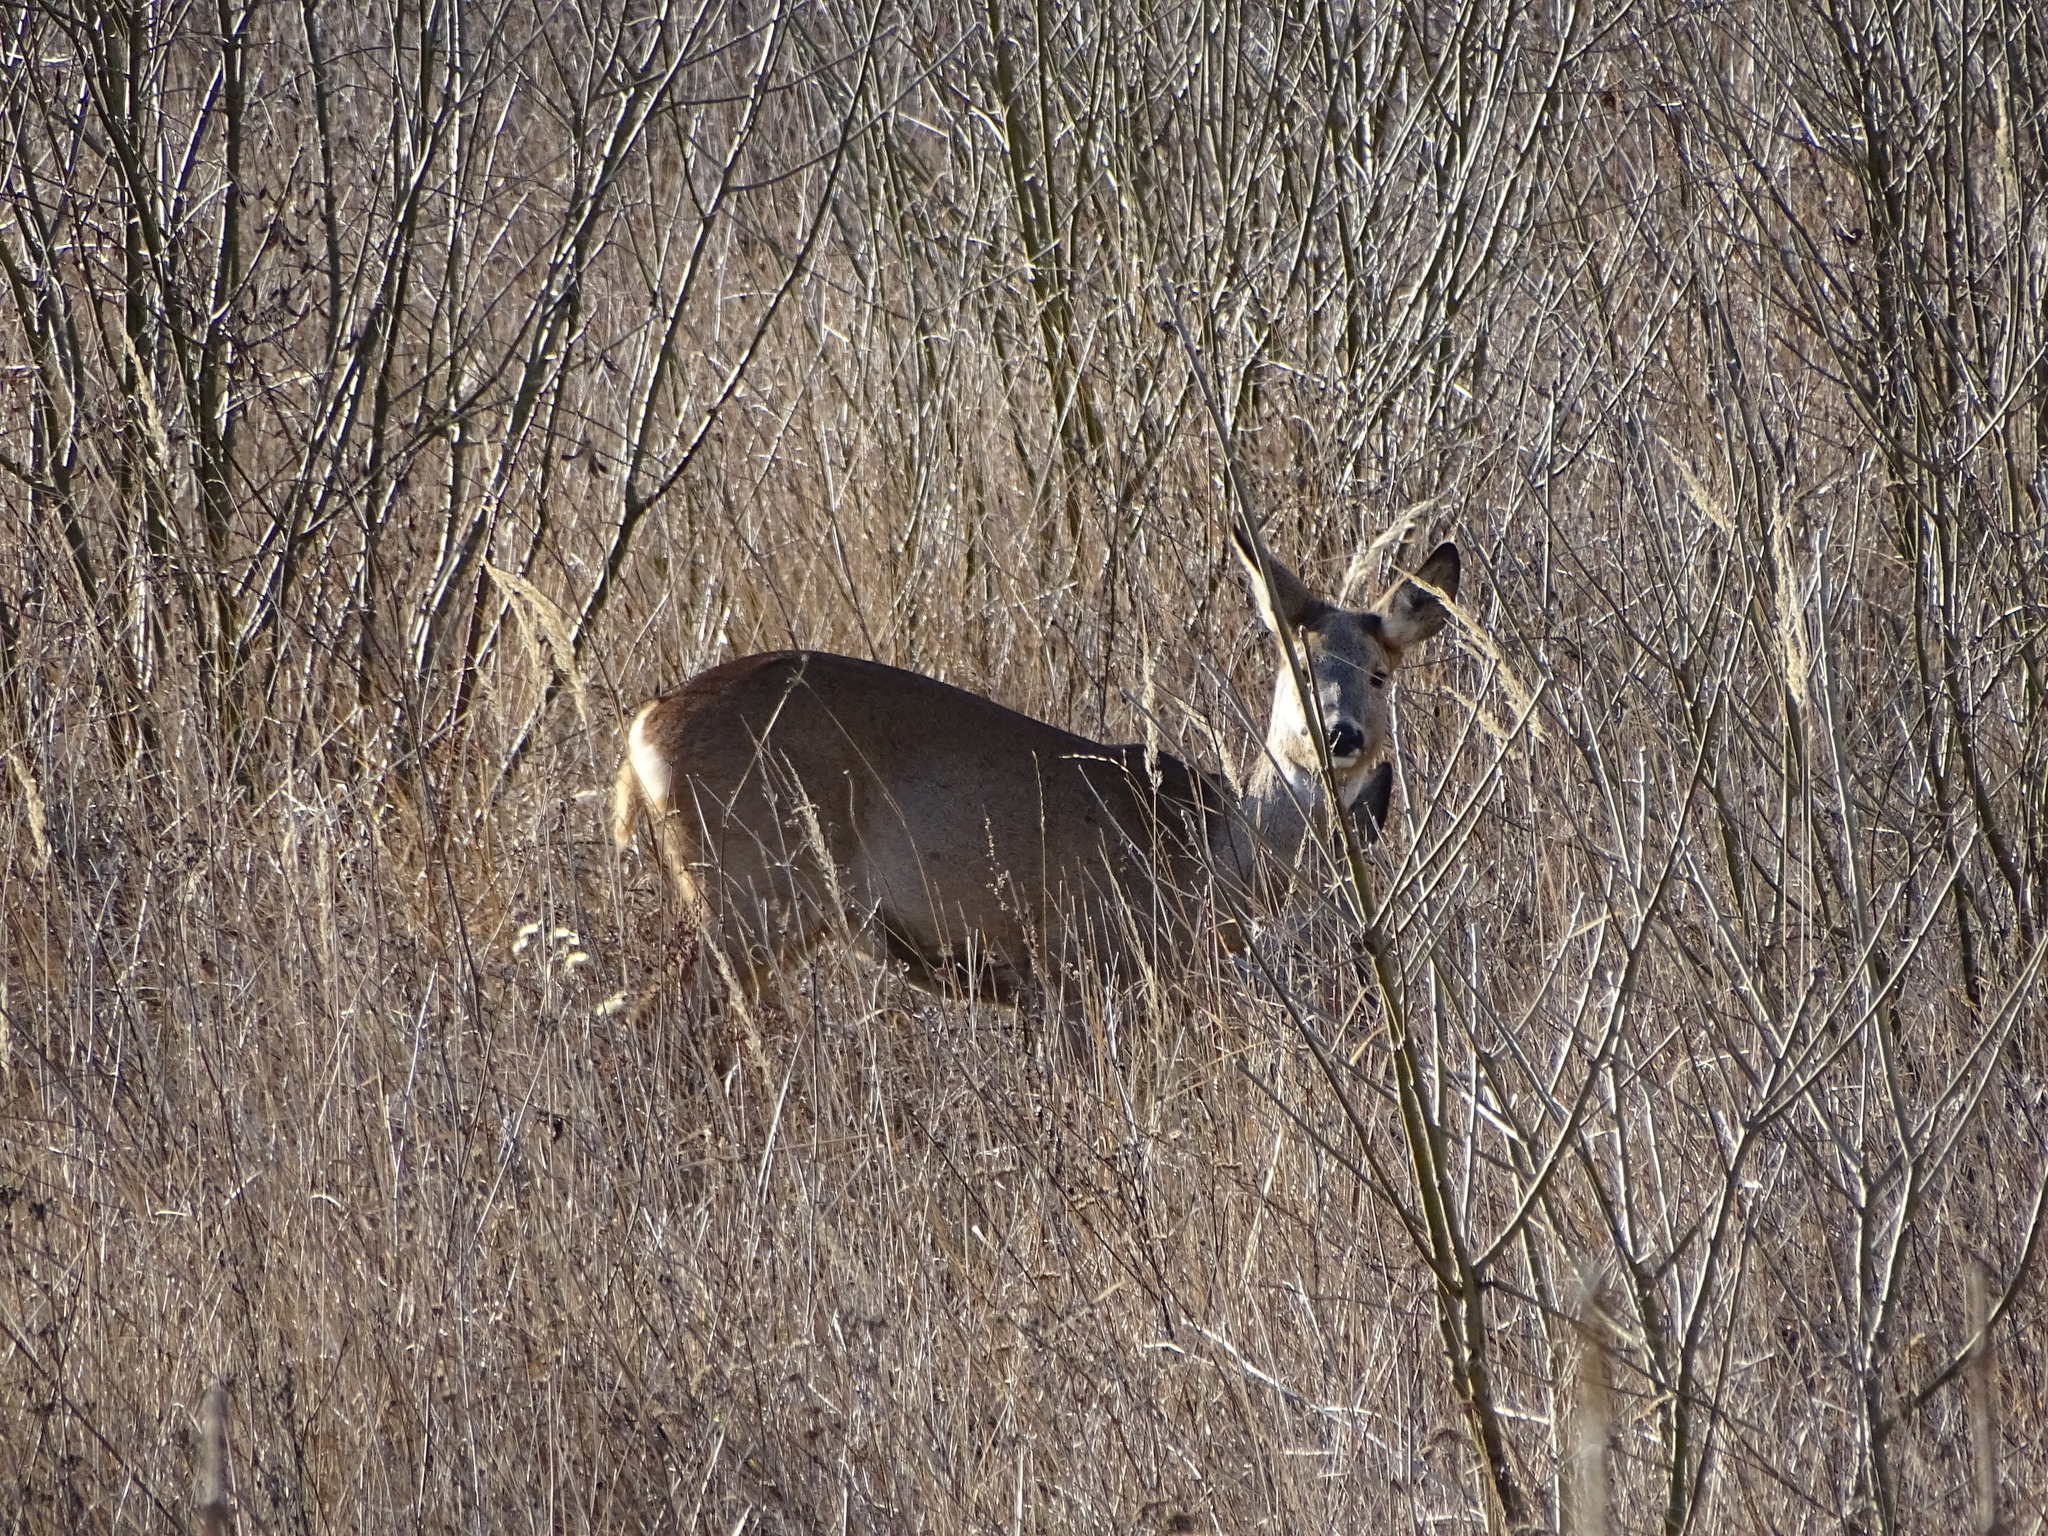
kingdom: Animalia
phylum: Chordata
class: Mammalia
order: Artiodactyla
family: Cervidae
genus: Capreolus
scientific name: Capreolus capreolus
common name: Western roe deer
